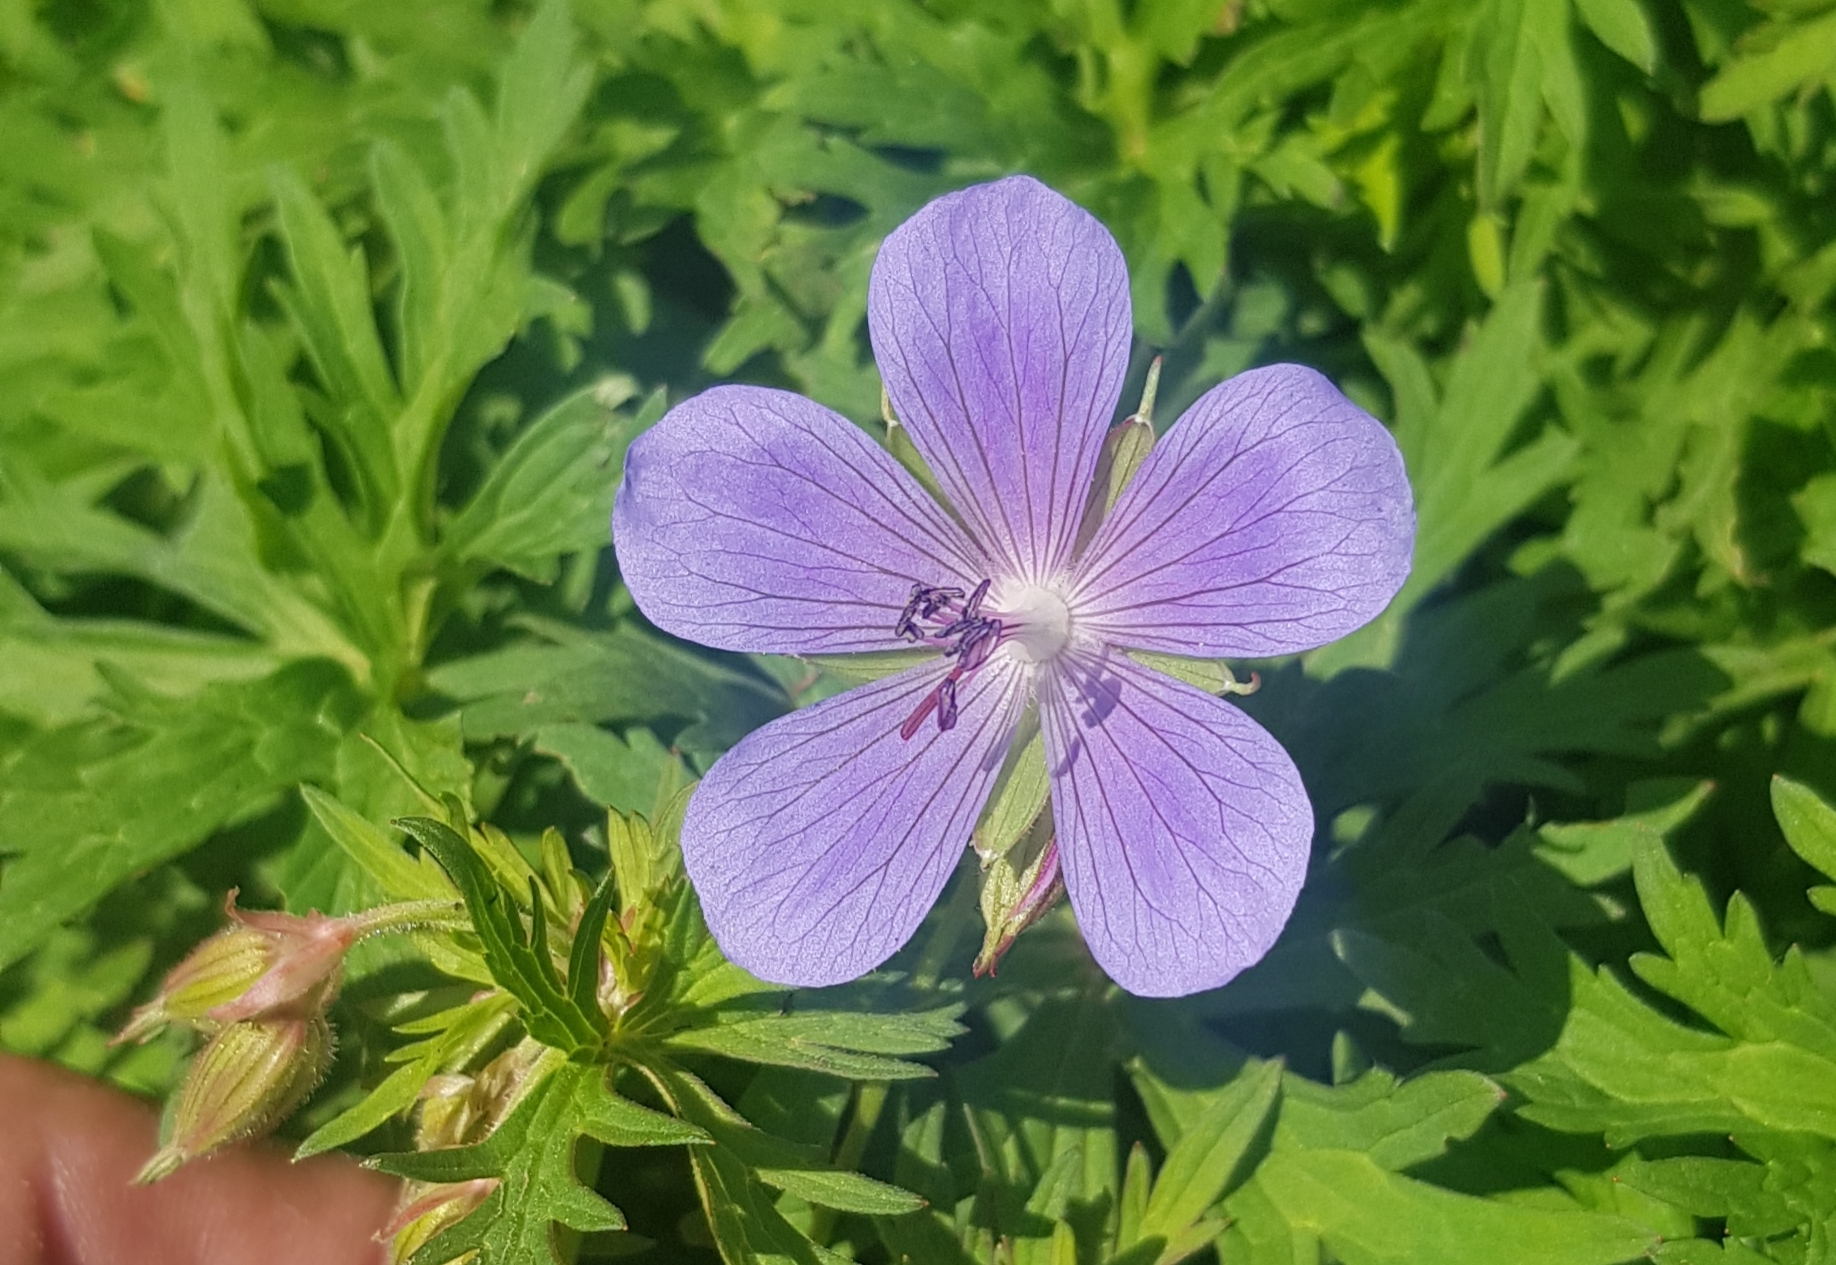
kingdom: Plantae
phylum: Tracheophyta
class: Magnoliopsida
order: Geraniales
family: Geraniaceae
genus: Geranium
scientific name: Geranium pratense
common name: Meadow crane's-bill
